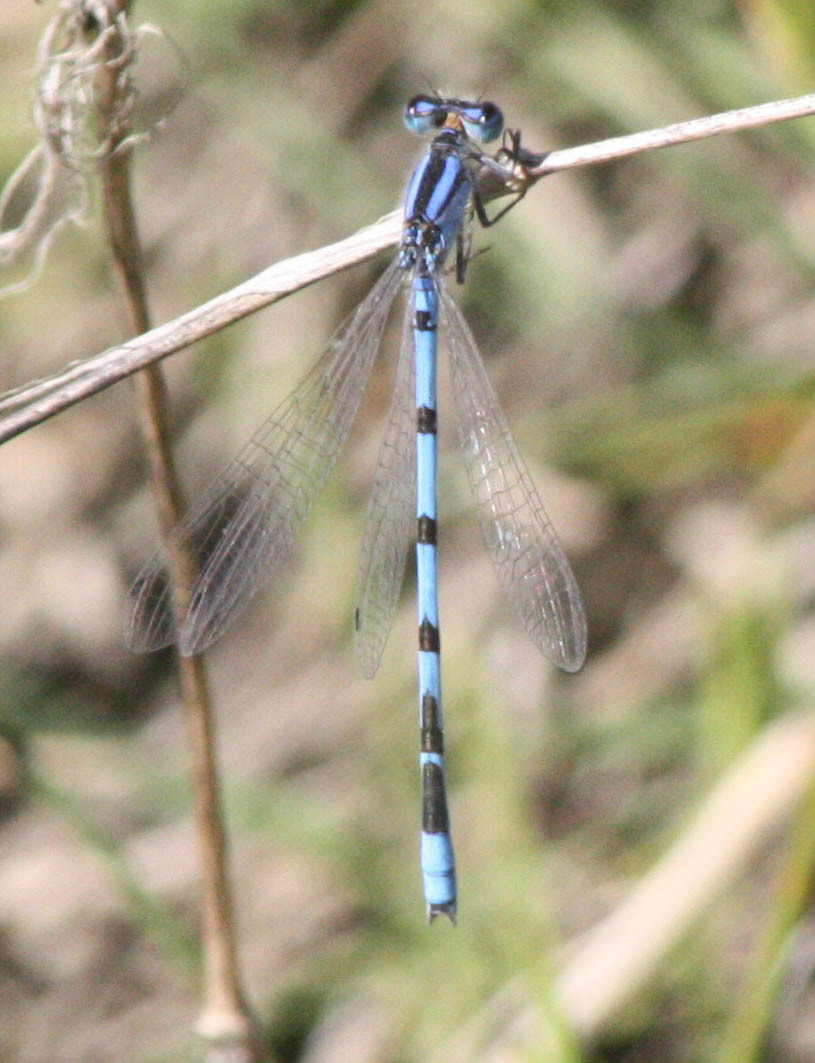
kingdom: Animalia
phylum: Arthropoda
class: Insecta
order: Odonata
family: Coenagrionidae
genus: Enallagma
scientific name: Enallagma civile
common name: Damselfly
